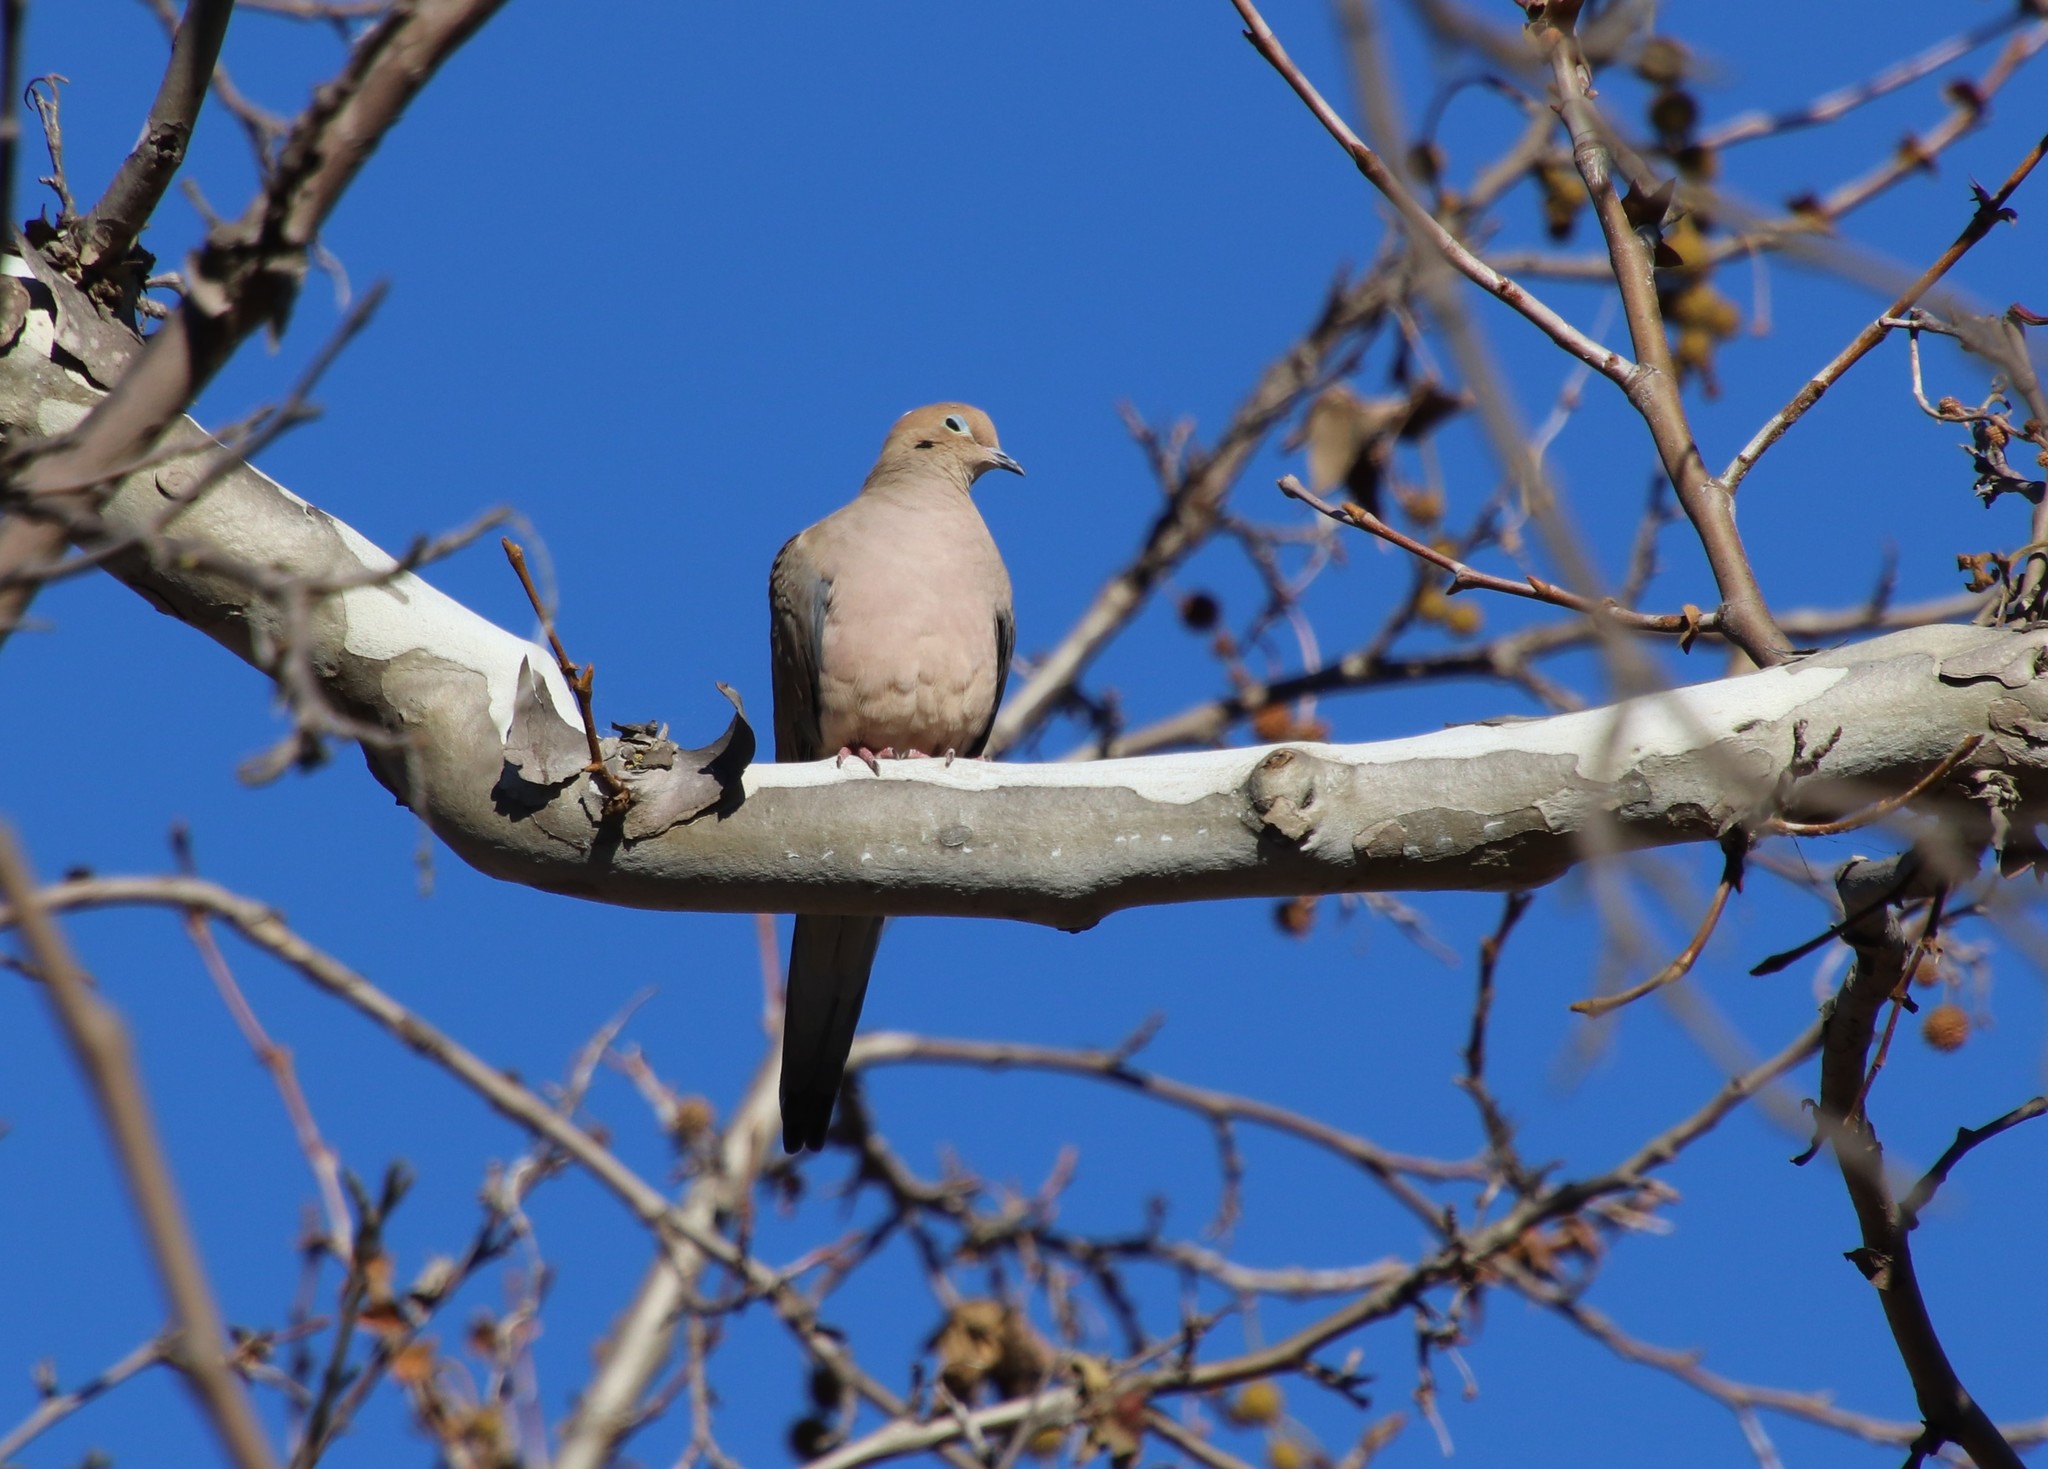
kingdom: Animalia
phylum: Chordata
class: Aves
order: Columbiformes
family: Columbidae
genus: Zenaida
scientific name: Zenaida macroura
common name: Mourning dove
